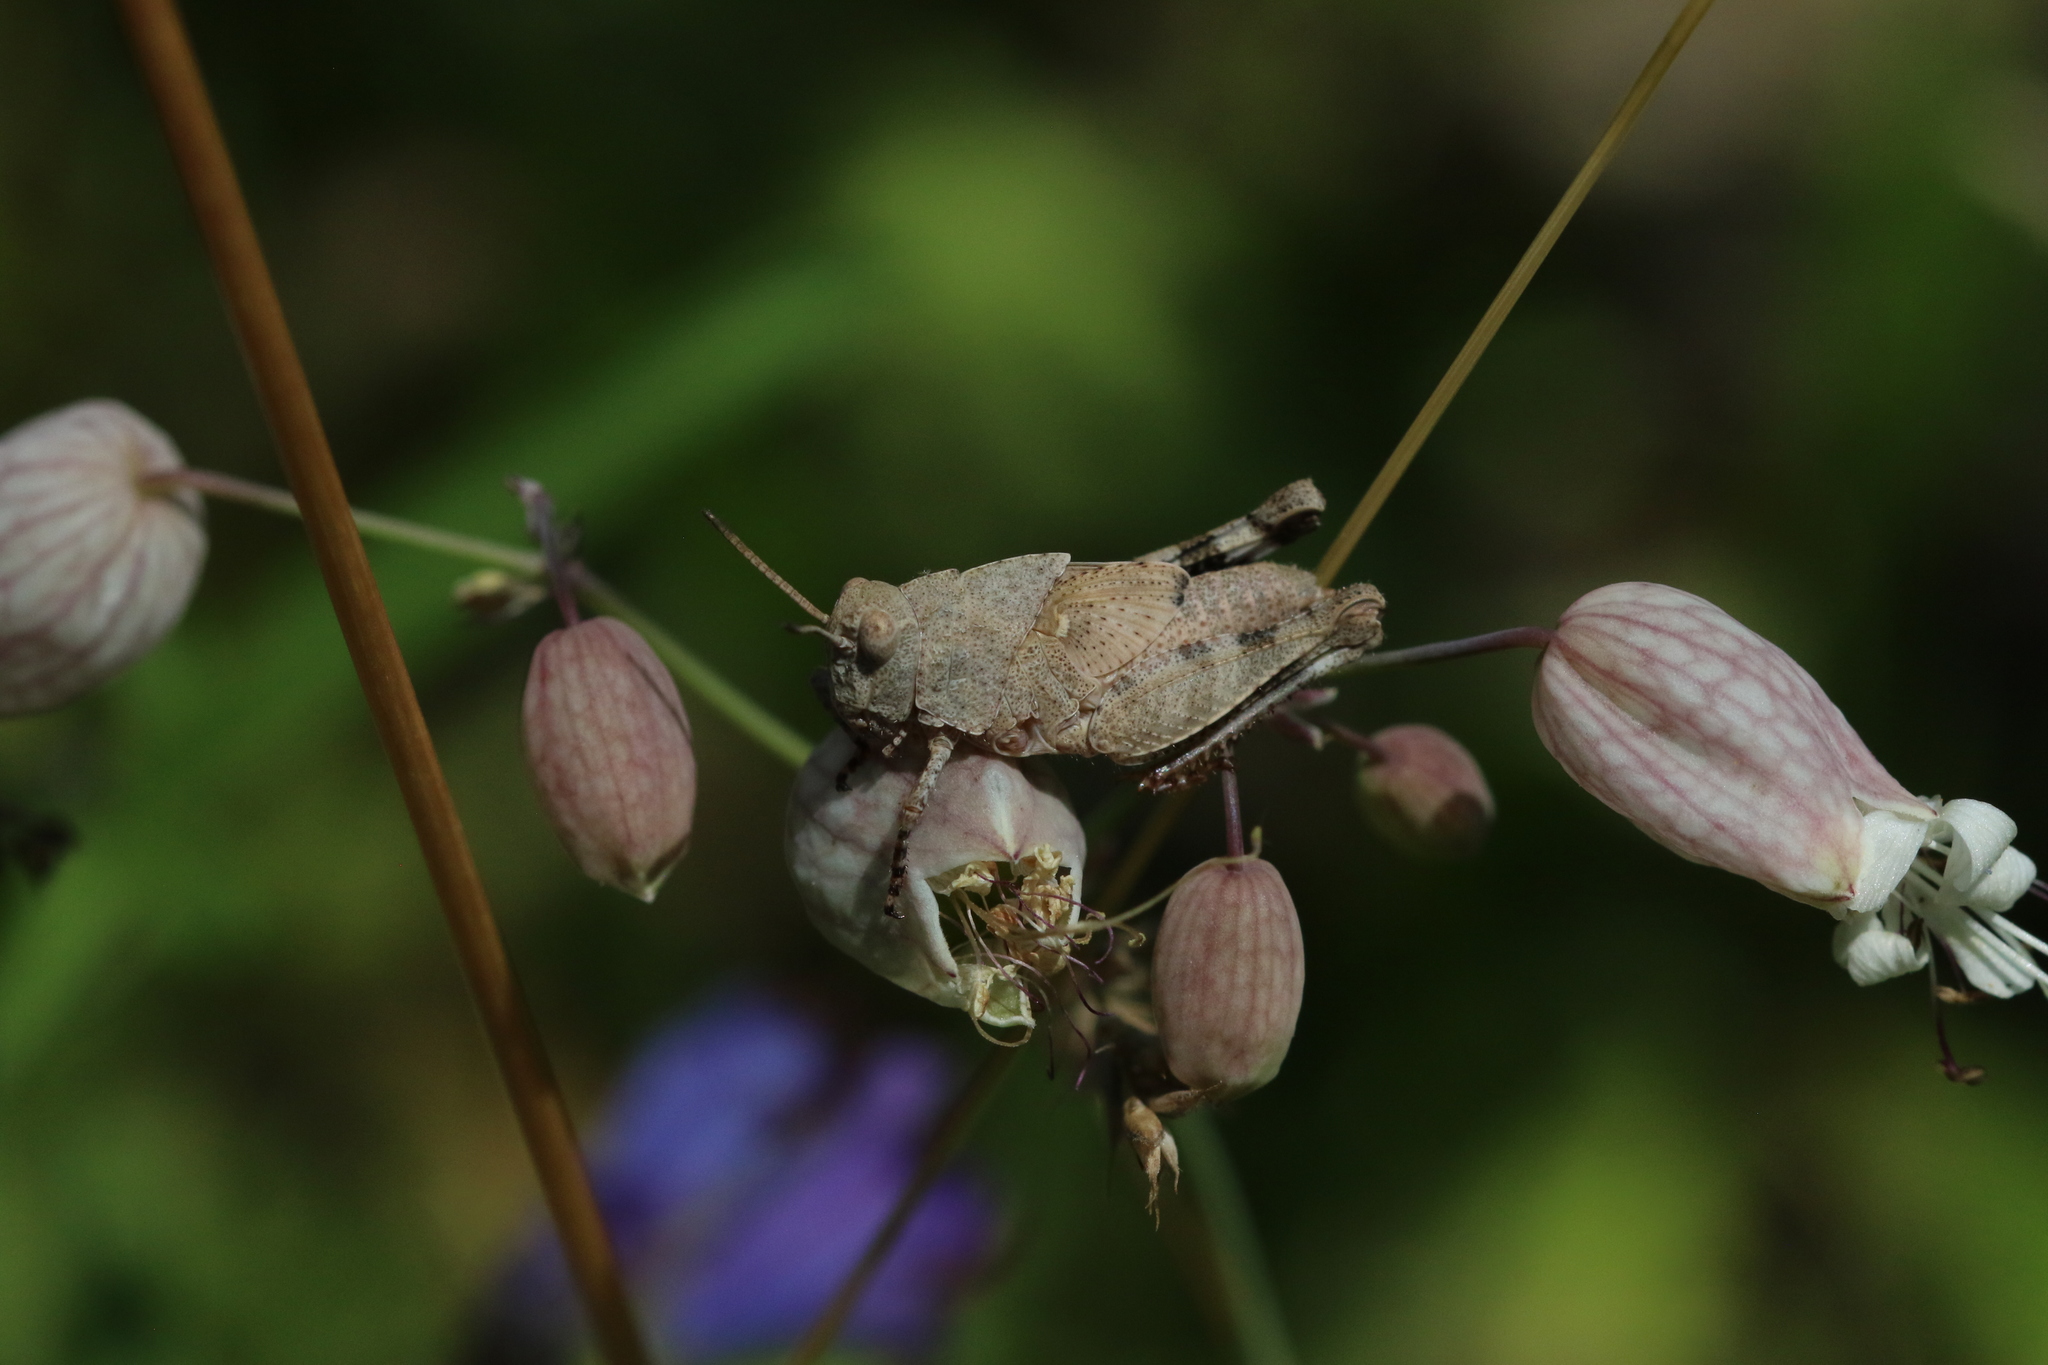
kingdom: Animalia
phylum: Arthropoda
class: Insecta
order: Orthoptera
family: Acrididae
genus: Oedipoda
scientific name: Oedipoda caerulescens
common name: Blue-winged grasshopper
